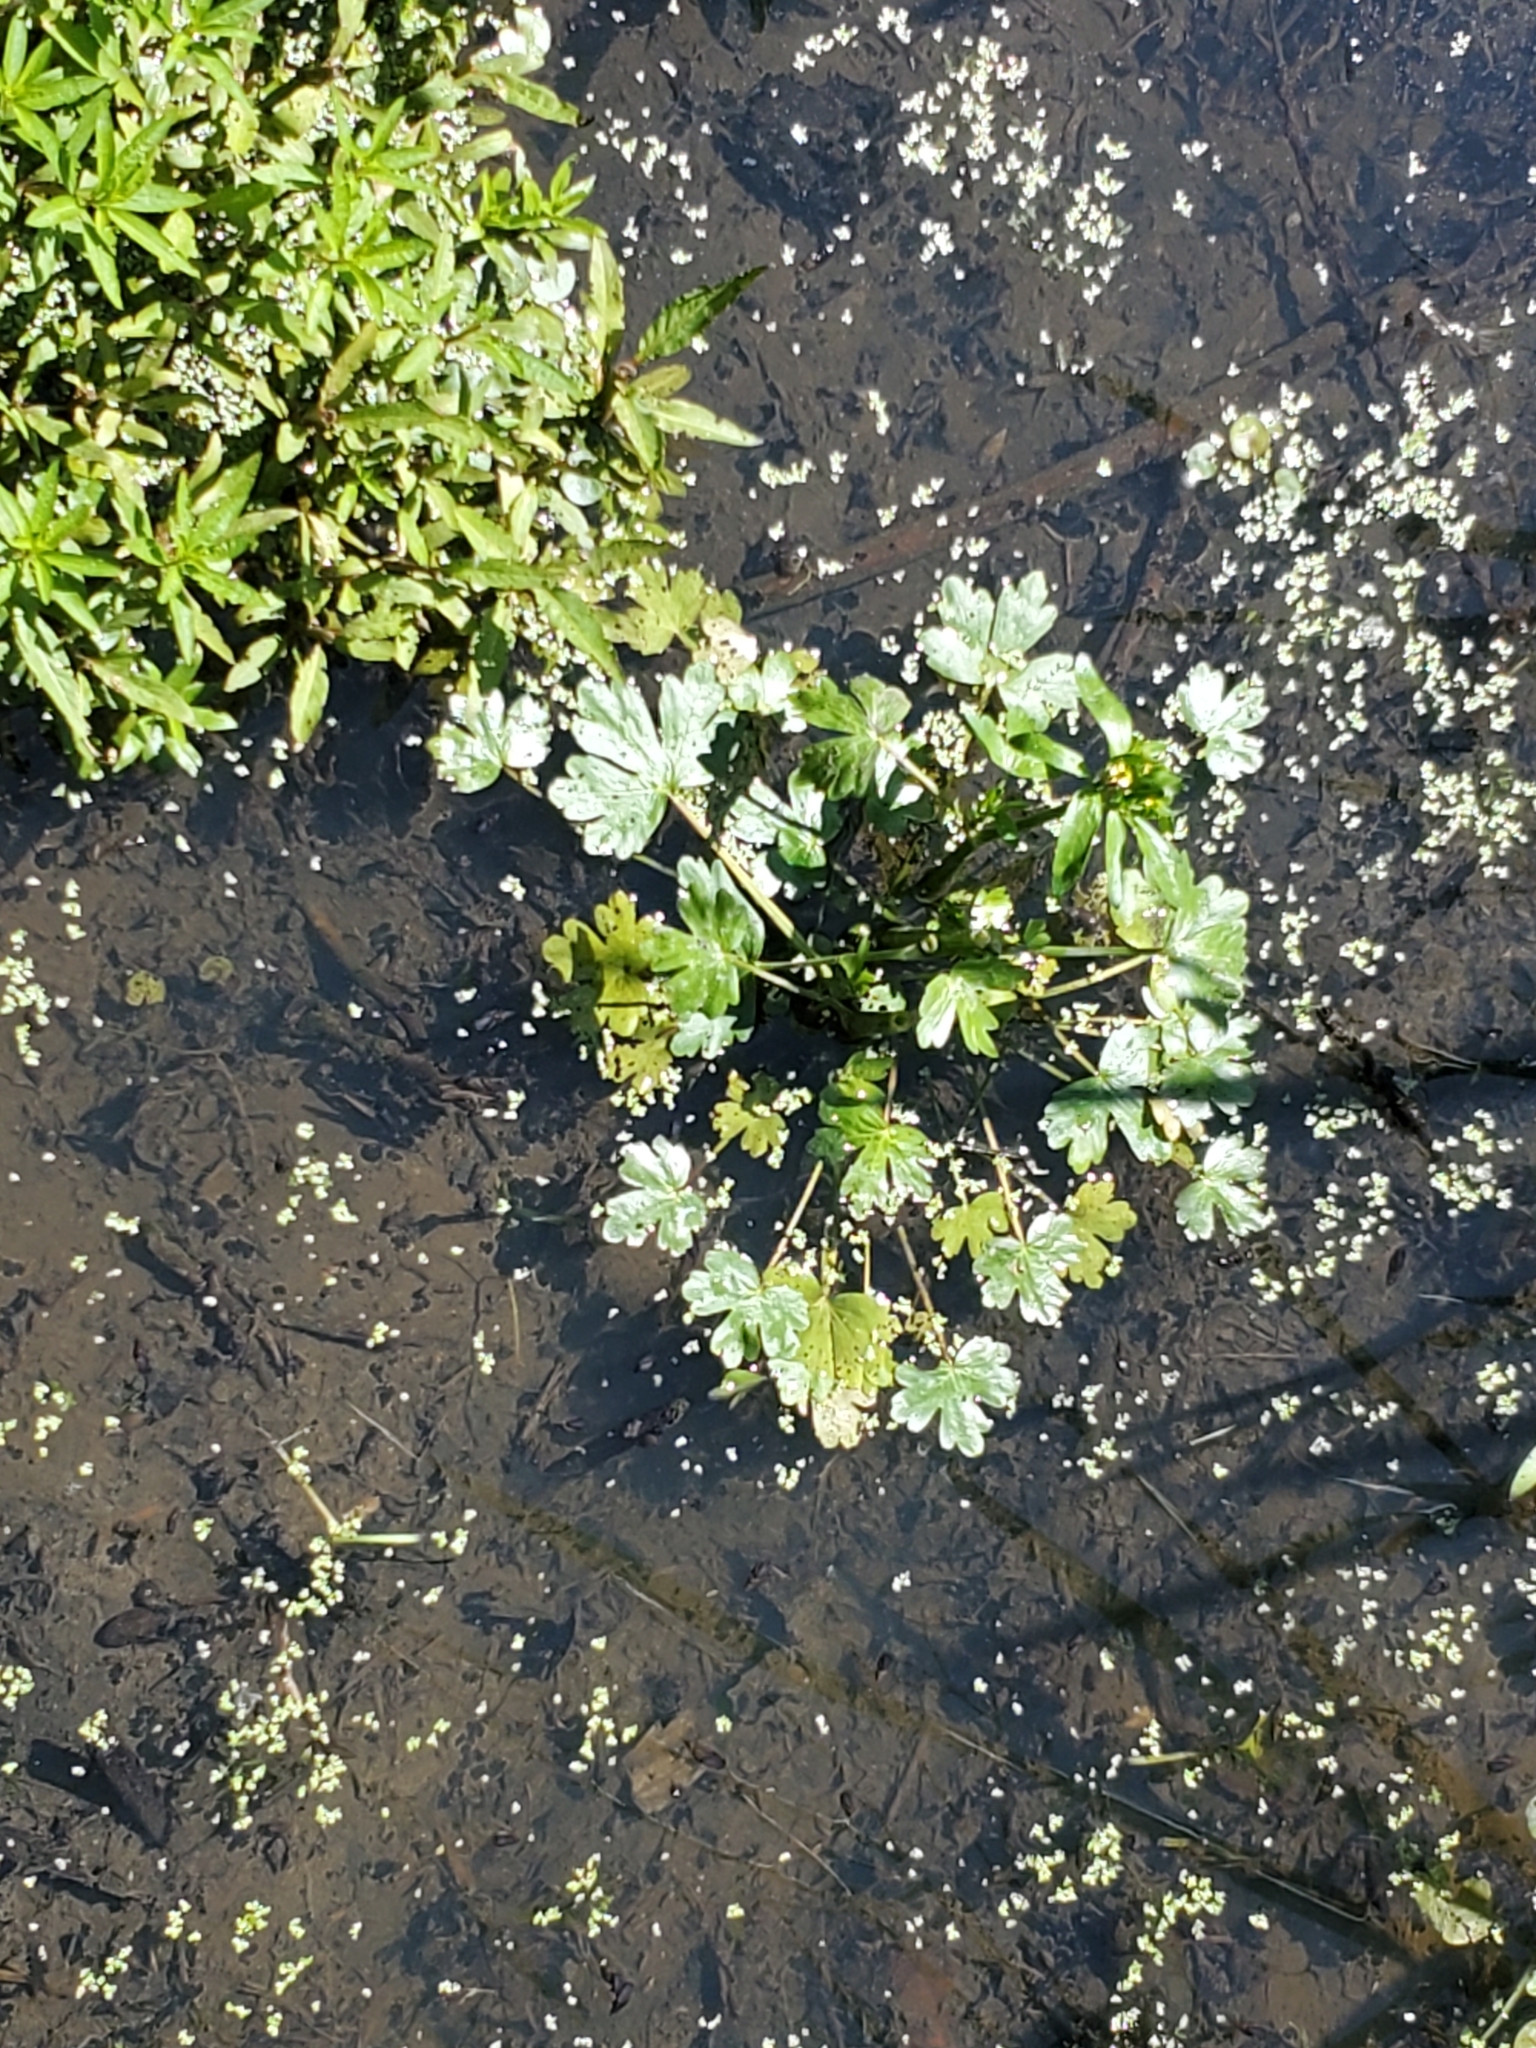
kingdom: Plantae
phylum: Tracheophyta
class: Magnoliopsida
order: Ranunculales
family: Ranunculaceae
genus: Ranunculus
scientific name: Ranunculus sceleratus
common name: Celery-leaved buttercup
